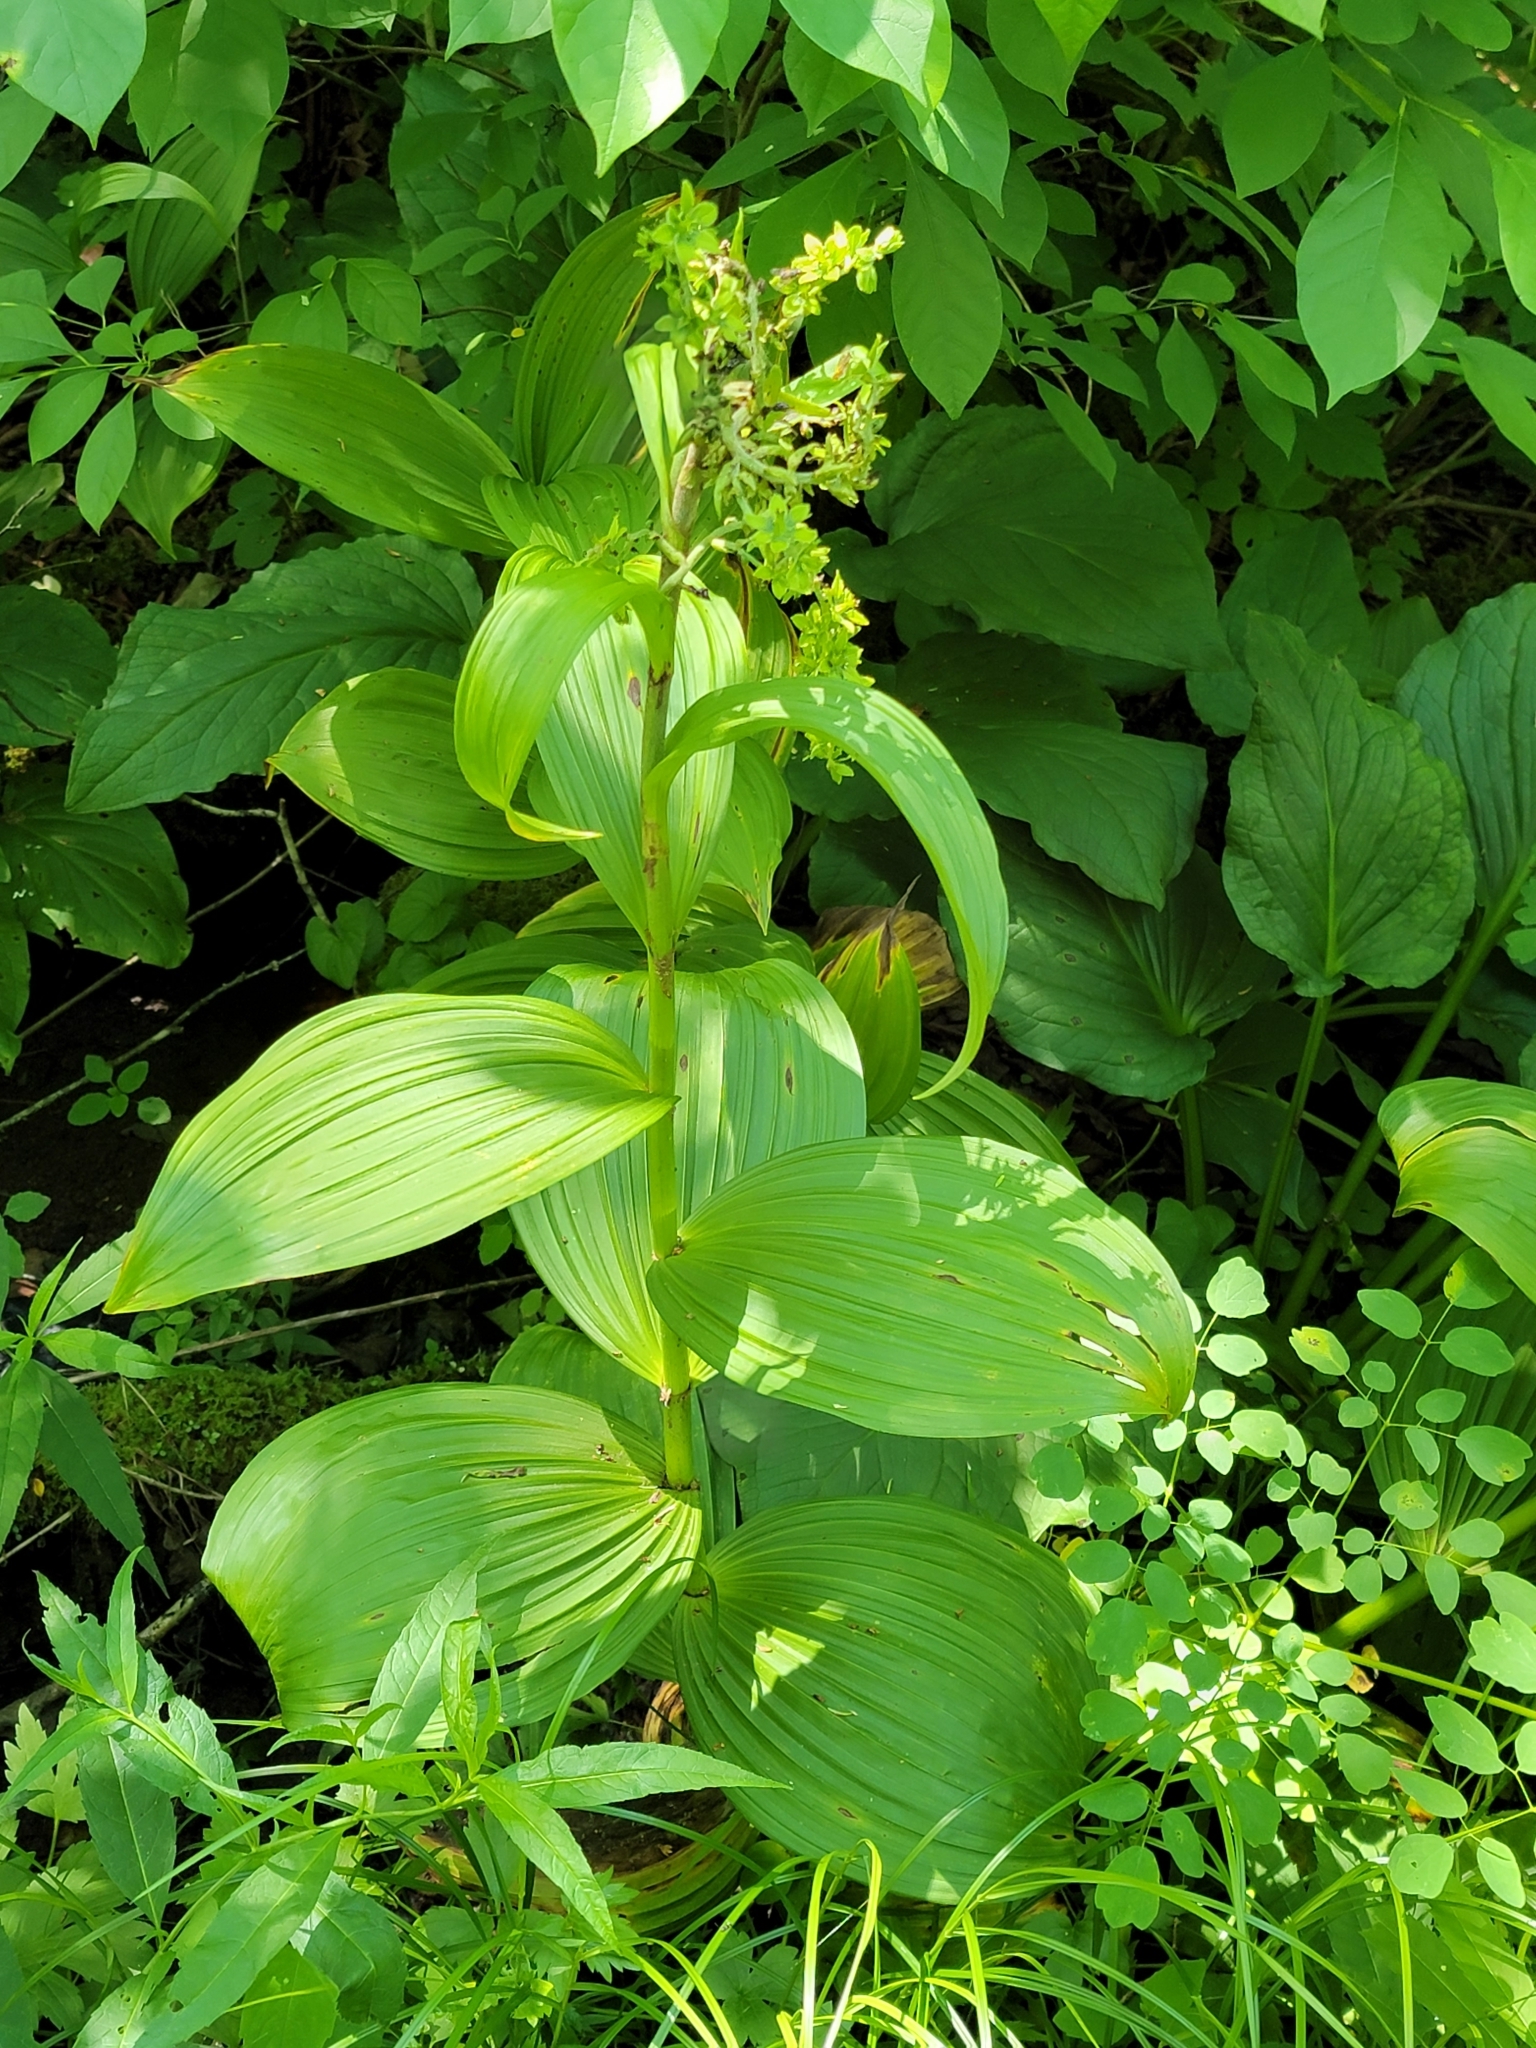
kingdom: Plantae
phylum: Tracheophyta
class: Liliopsida
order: Liliales
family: Melanthiaceae
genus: Veratrum
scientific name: Veratrum viride
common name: American false hellebore
